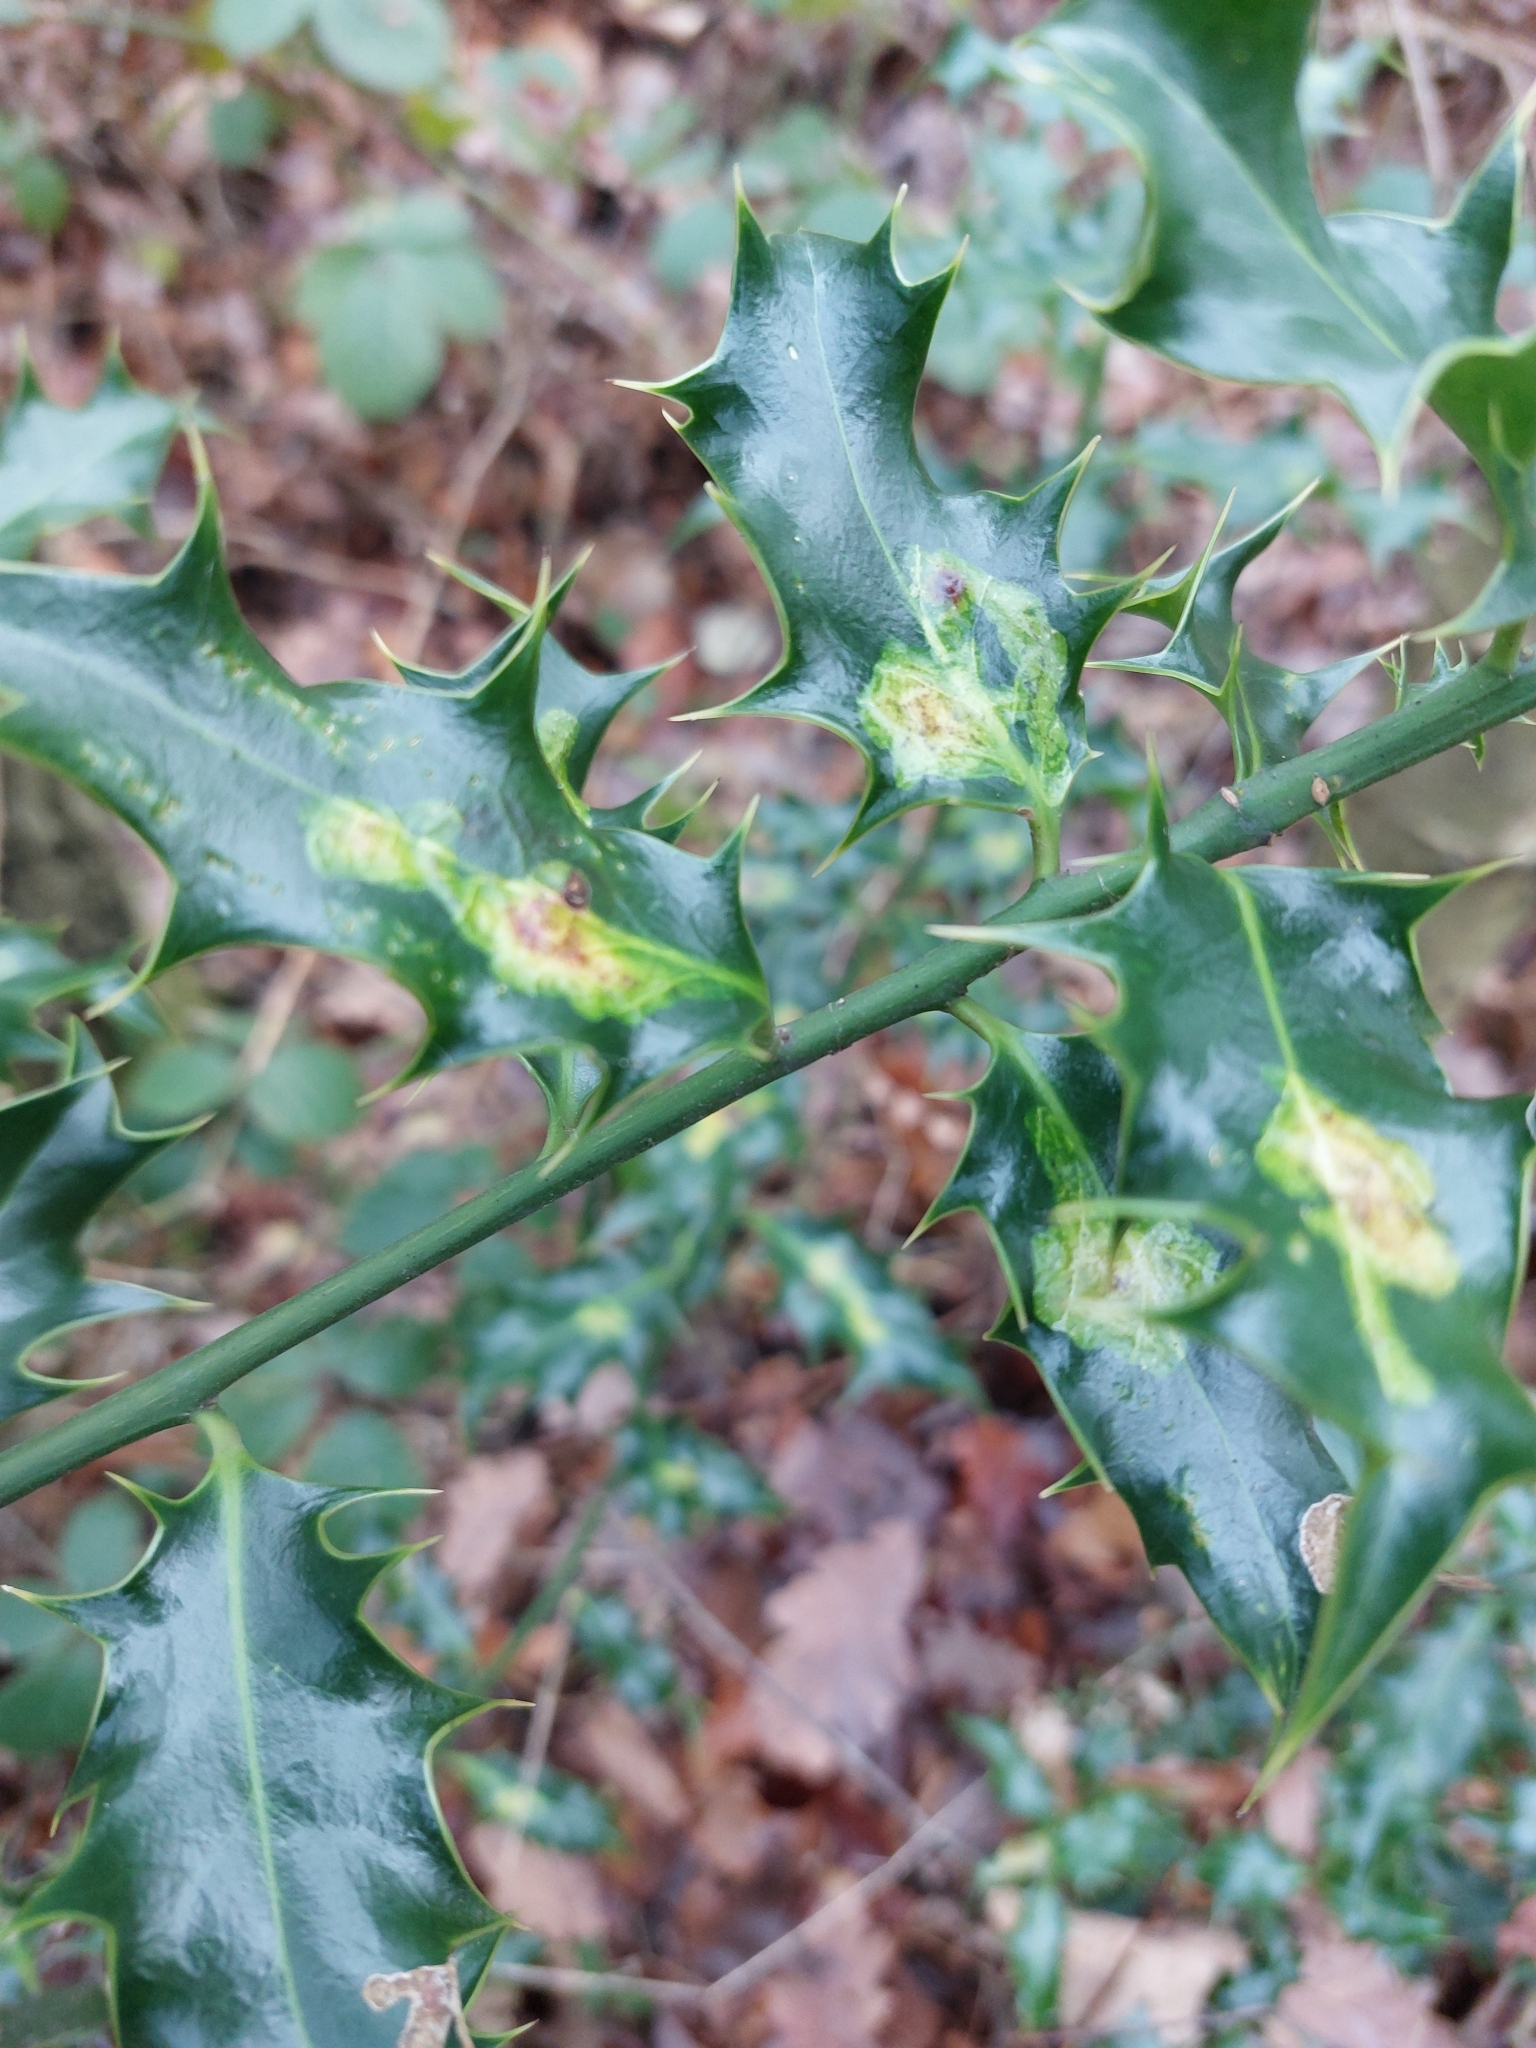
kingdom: Animalia
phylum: Arthropoda
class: Insecta
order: Diptera
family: Agromyzidae
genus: Phytomyza
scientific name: Phytomyza ilicis
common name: Holly leafminer
